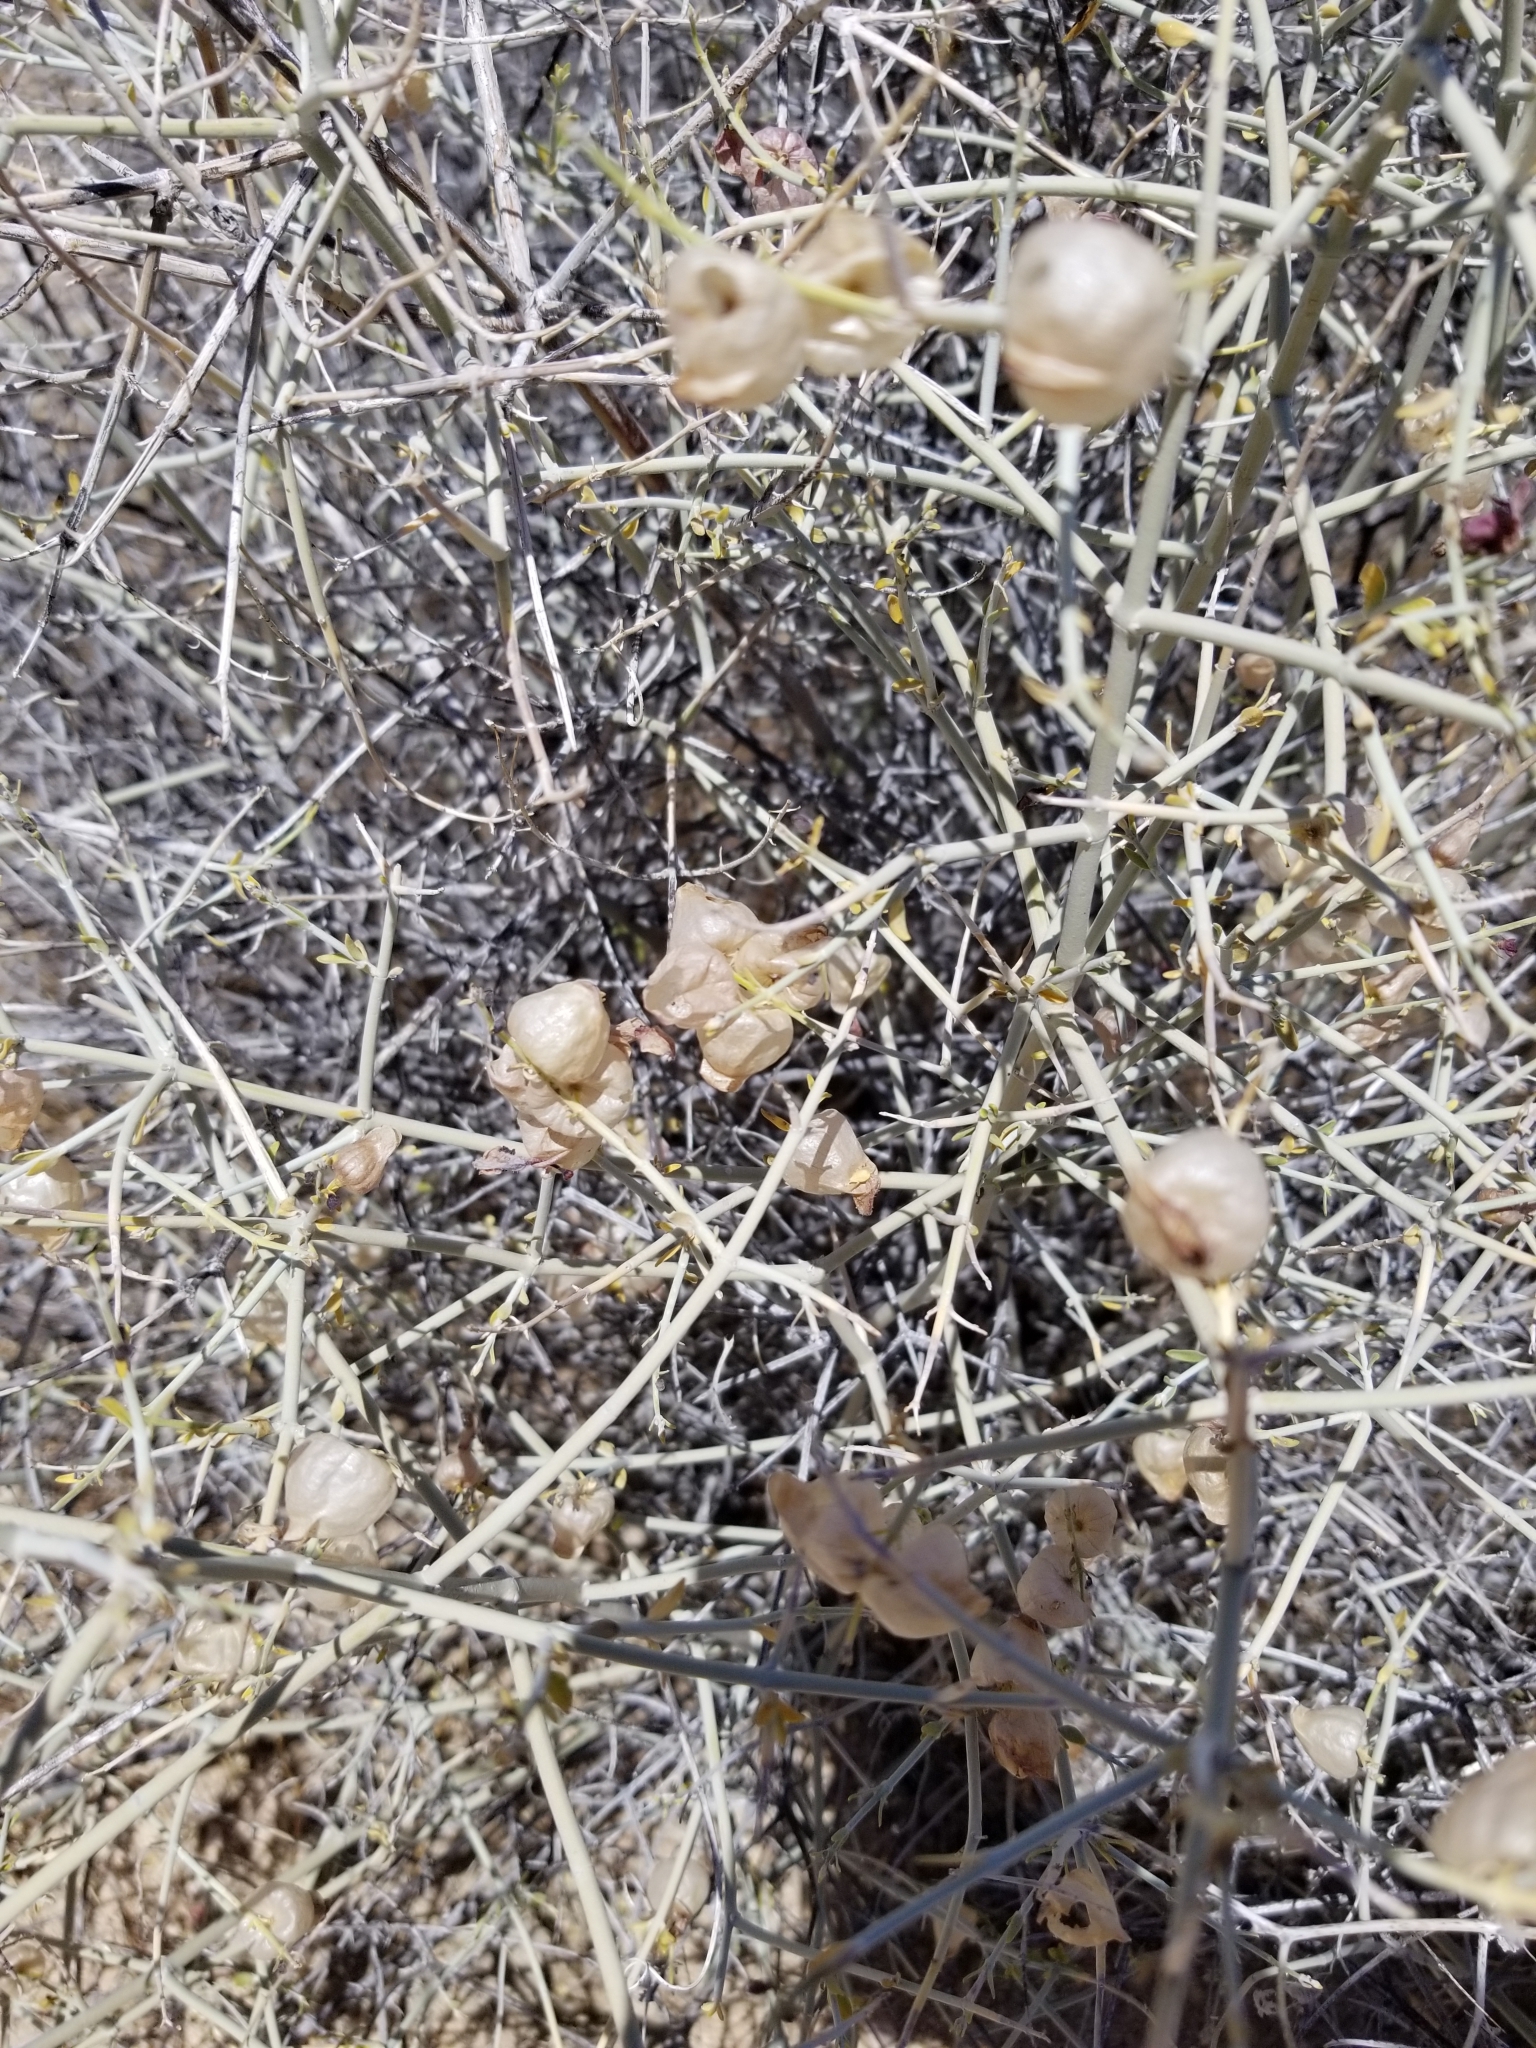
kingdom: Plantae
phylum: Tracheophyta
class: Magnoliopsida
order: Lamiales
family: Lamiaceae
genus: Scutellaria
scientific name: Scutellaria mexicana
